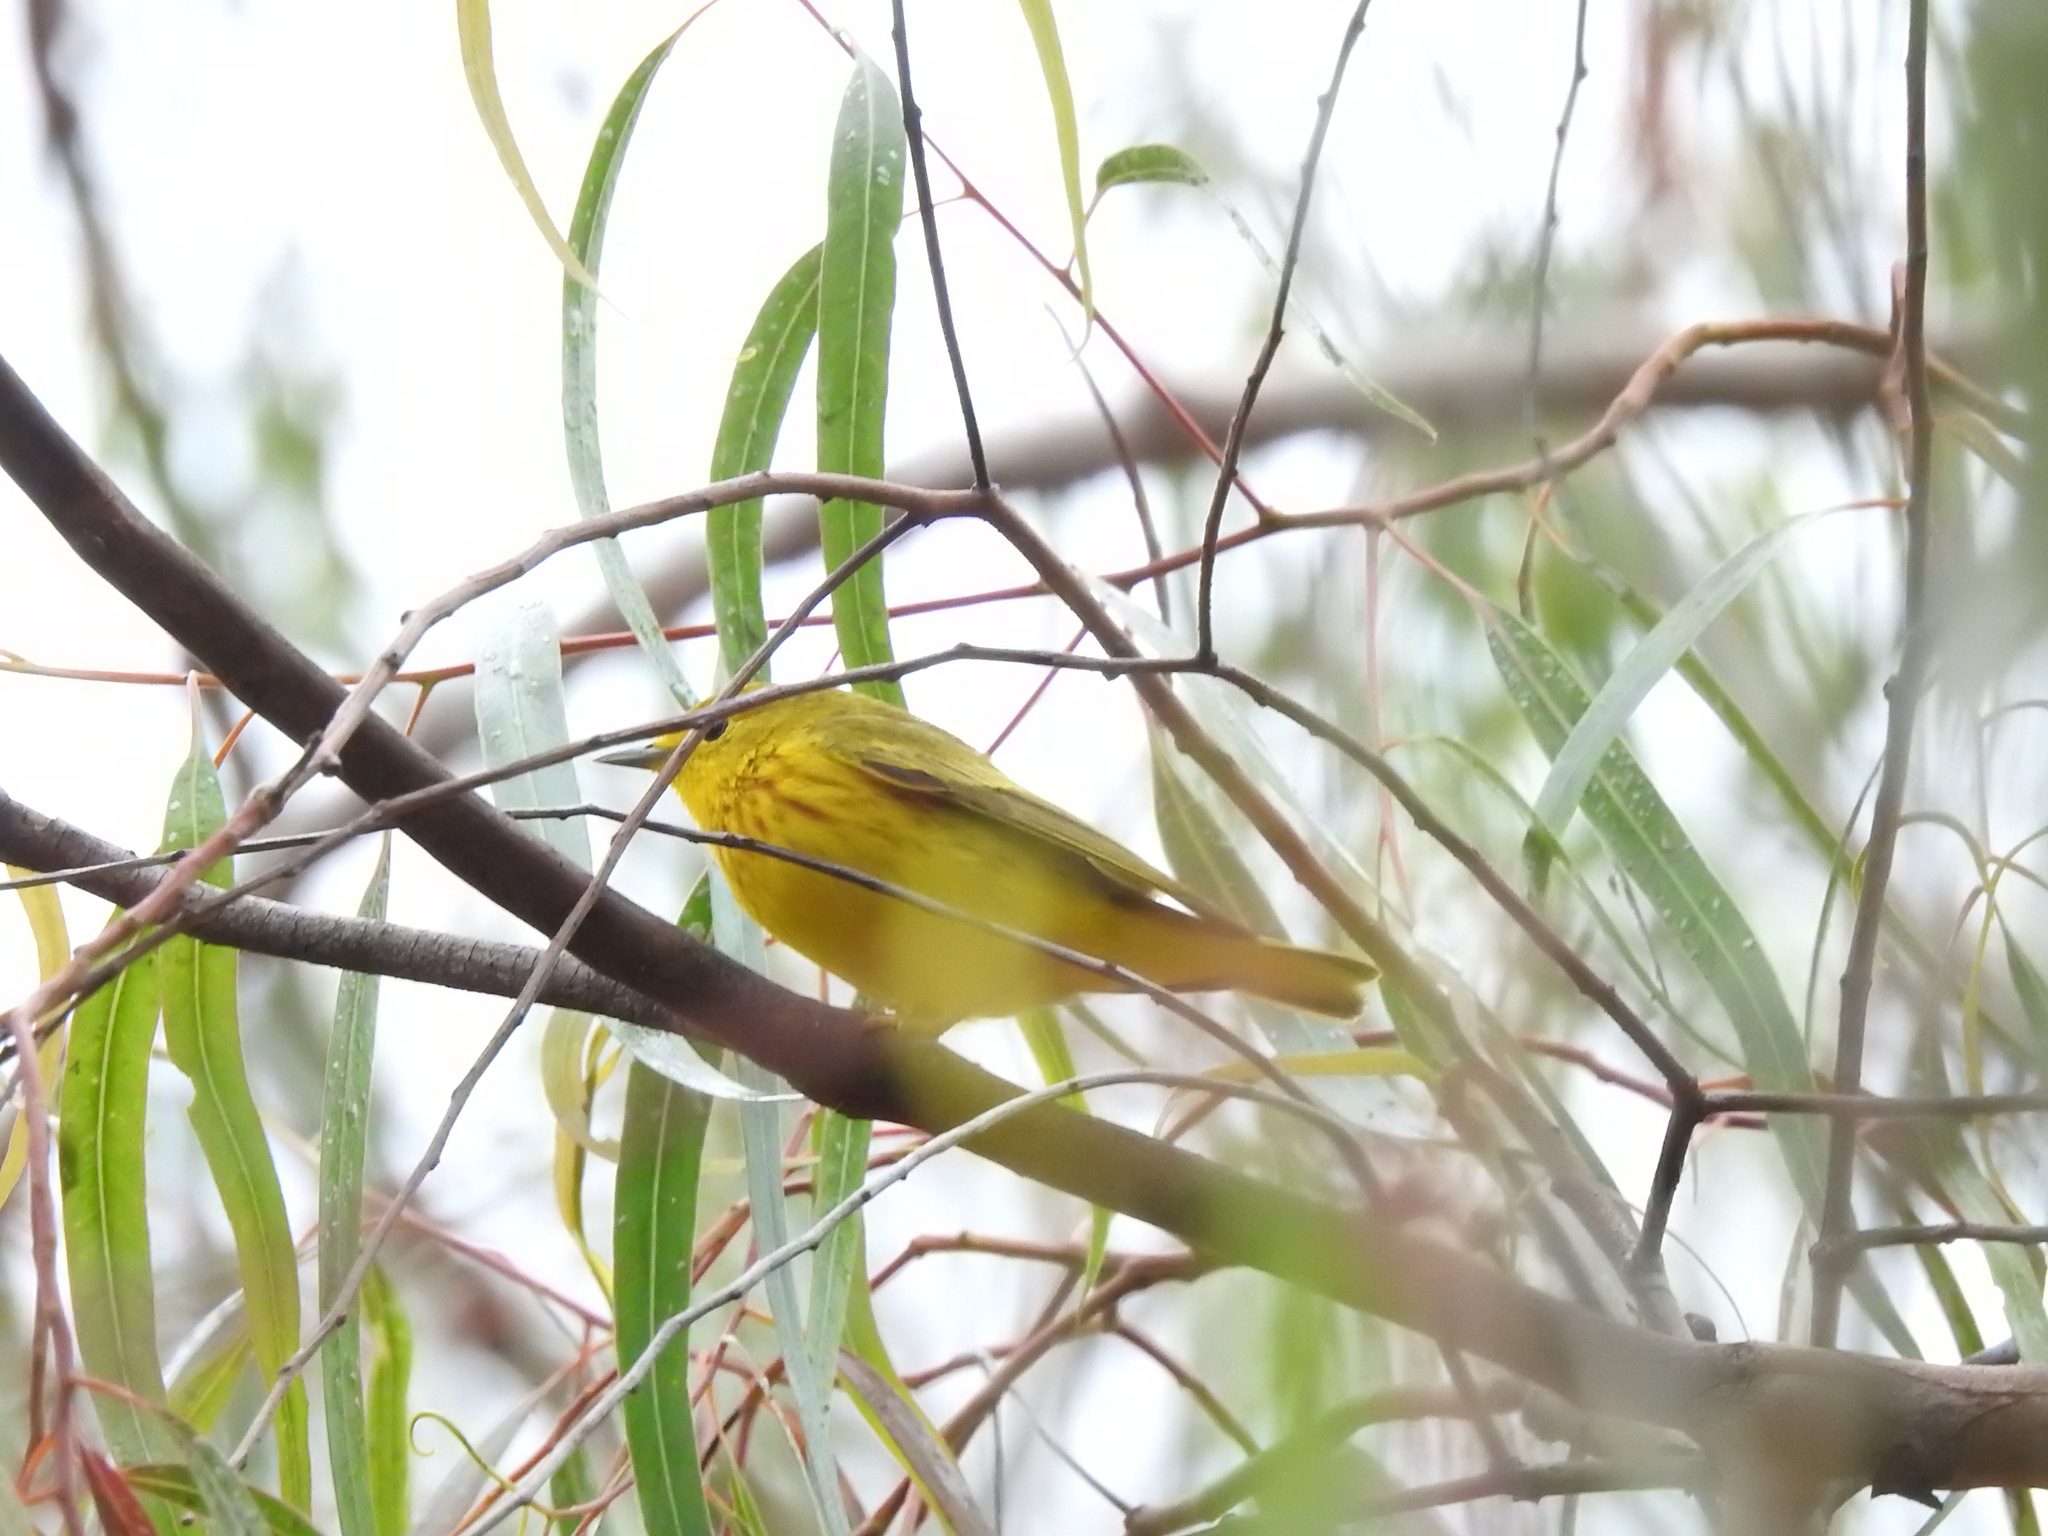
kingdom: Animalia
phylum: Chordata
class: Aves
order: Passeriformes
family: Parulidae
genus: Setophaga
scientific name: Setophaga petechia
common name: Yellow warbler
